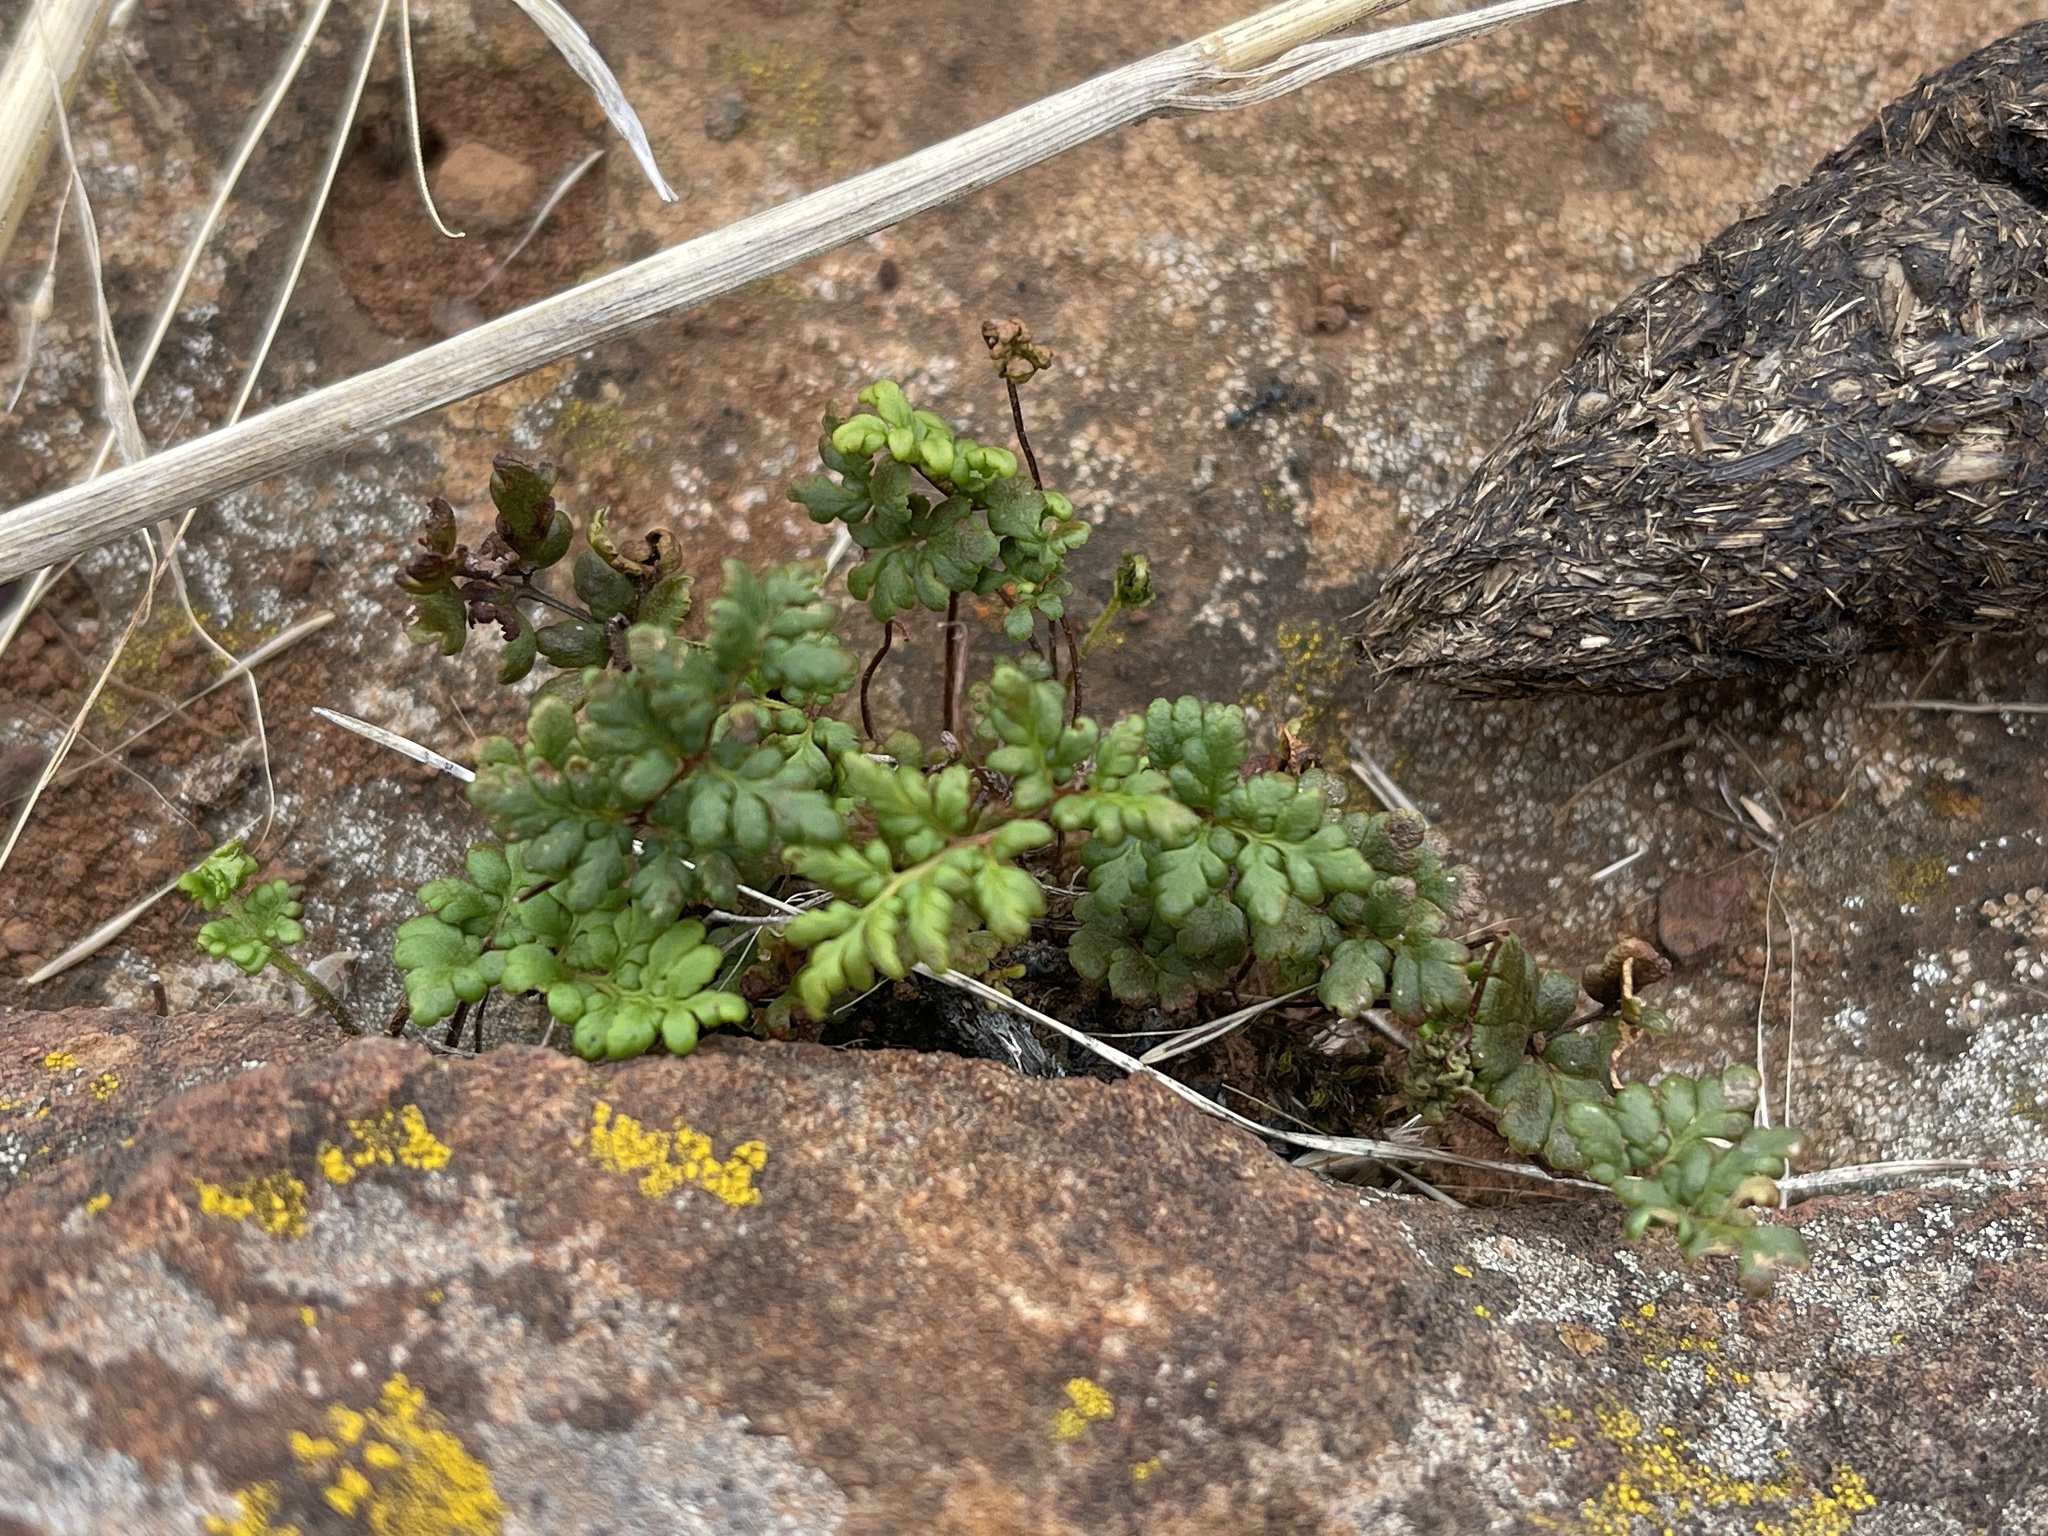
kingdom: Plantae
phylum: Tracheophyta
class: Polypodiopsida
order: Polypodiales
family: Pteridaceae
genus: Cheilanthes
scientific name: Cheilanthes sieberi
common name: Mulga fern
